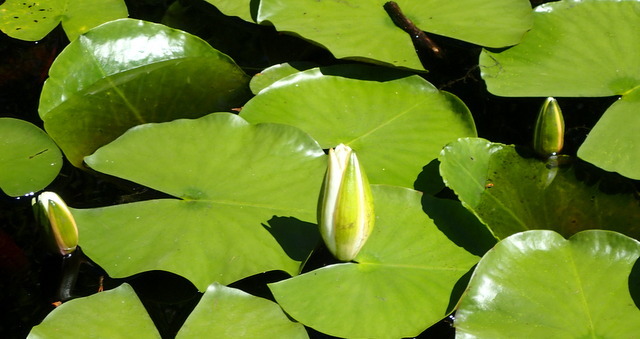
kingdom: Plantae
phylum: Tracheophyta
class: Magnoliopsida
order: Nymphaeales
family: Nymphaeaceae
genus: Nymphaea
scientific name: Nymphaea odorata
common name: Fragrant water-lily
